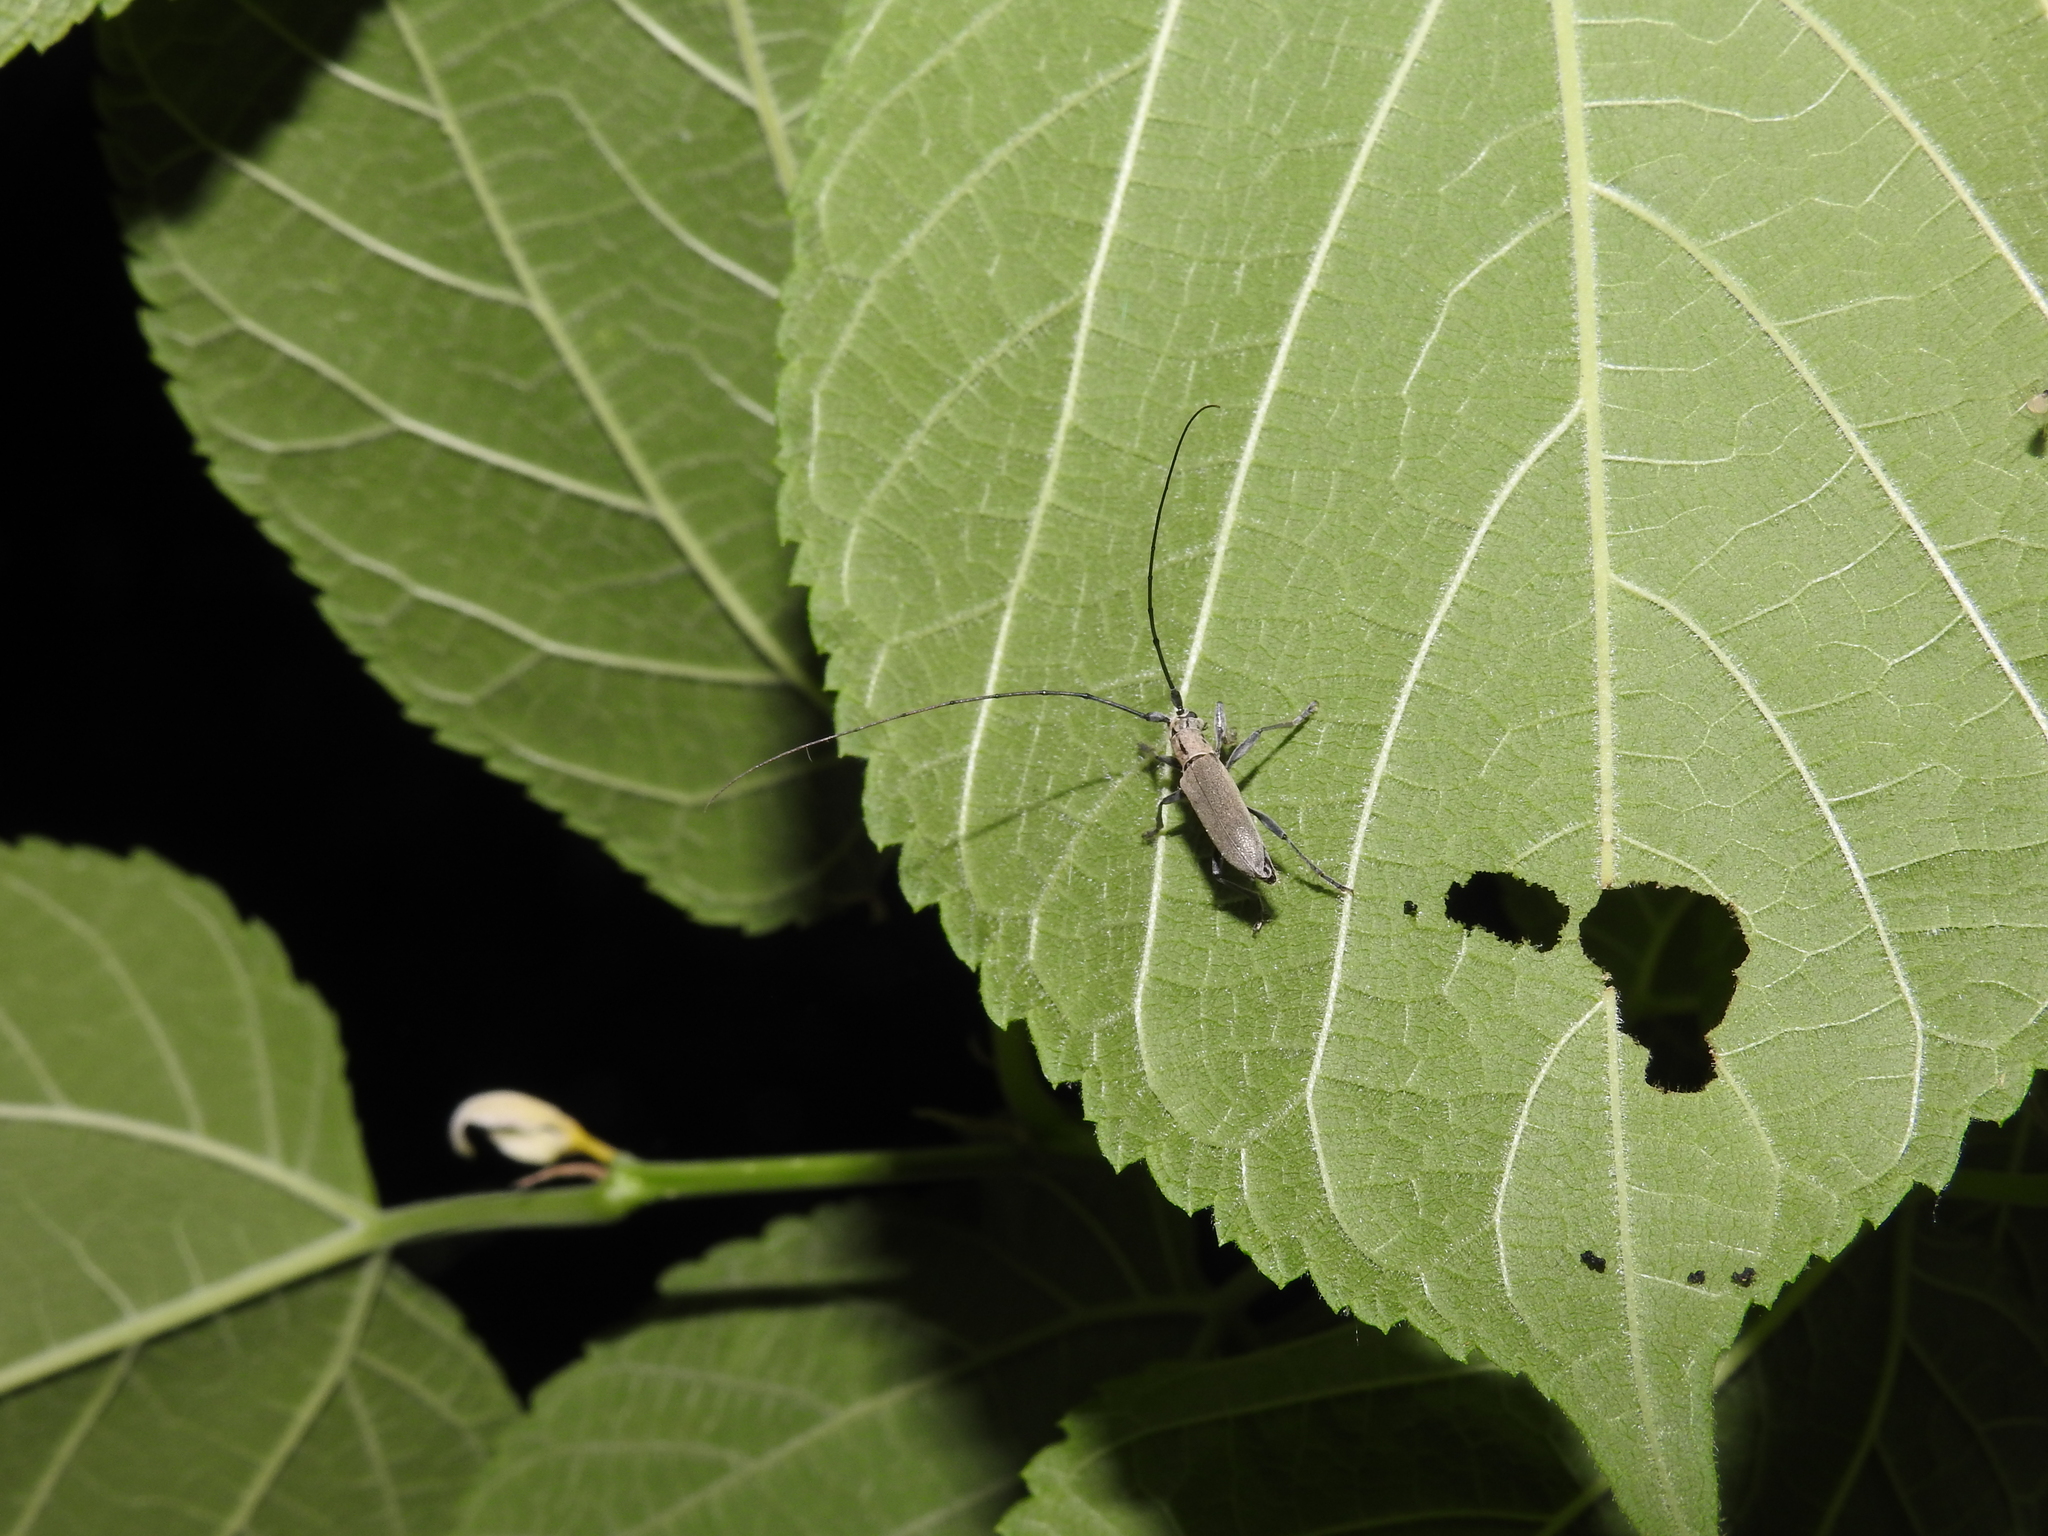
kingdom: Animalia
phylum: Arthropoda
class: Insecta
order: Coleoptera
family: Cerambycidae
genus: Dectes
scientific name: Dectes texanus
